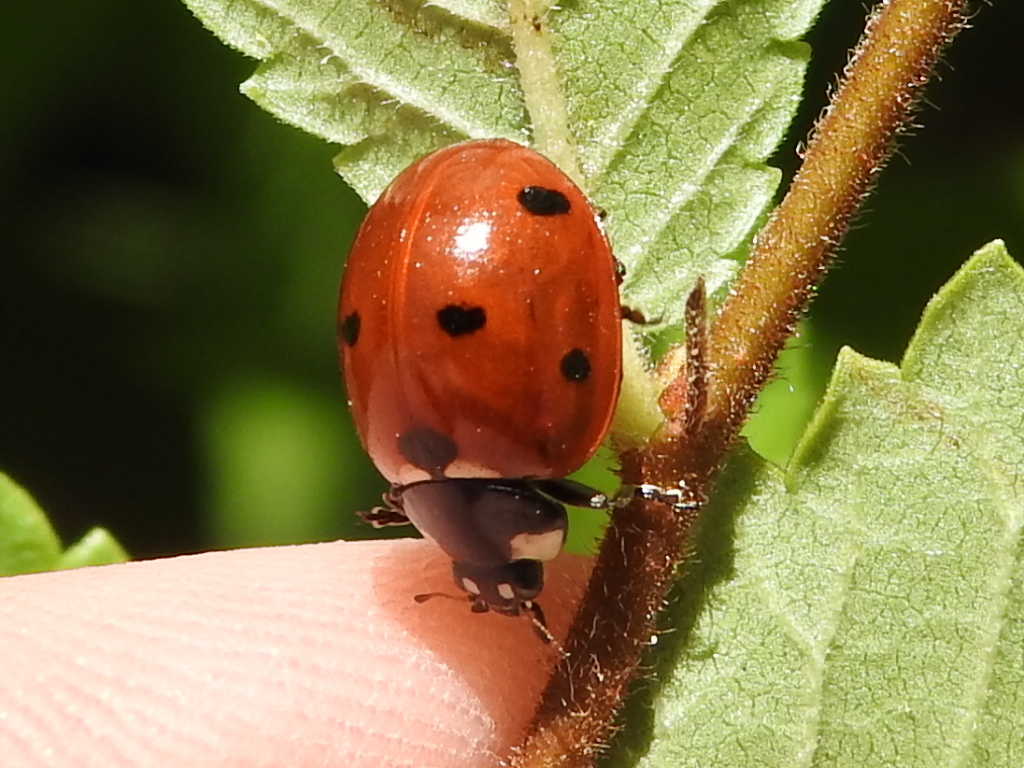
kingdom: Animalia
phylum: Arthropoda
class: Insecta
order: Coleoptera
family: Coccinellidae
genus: Coccinella
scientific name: Coccinella septempunctata
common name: Sevenspotted lady beetle
